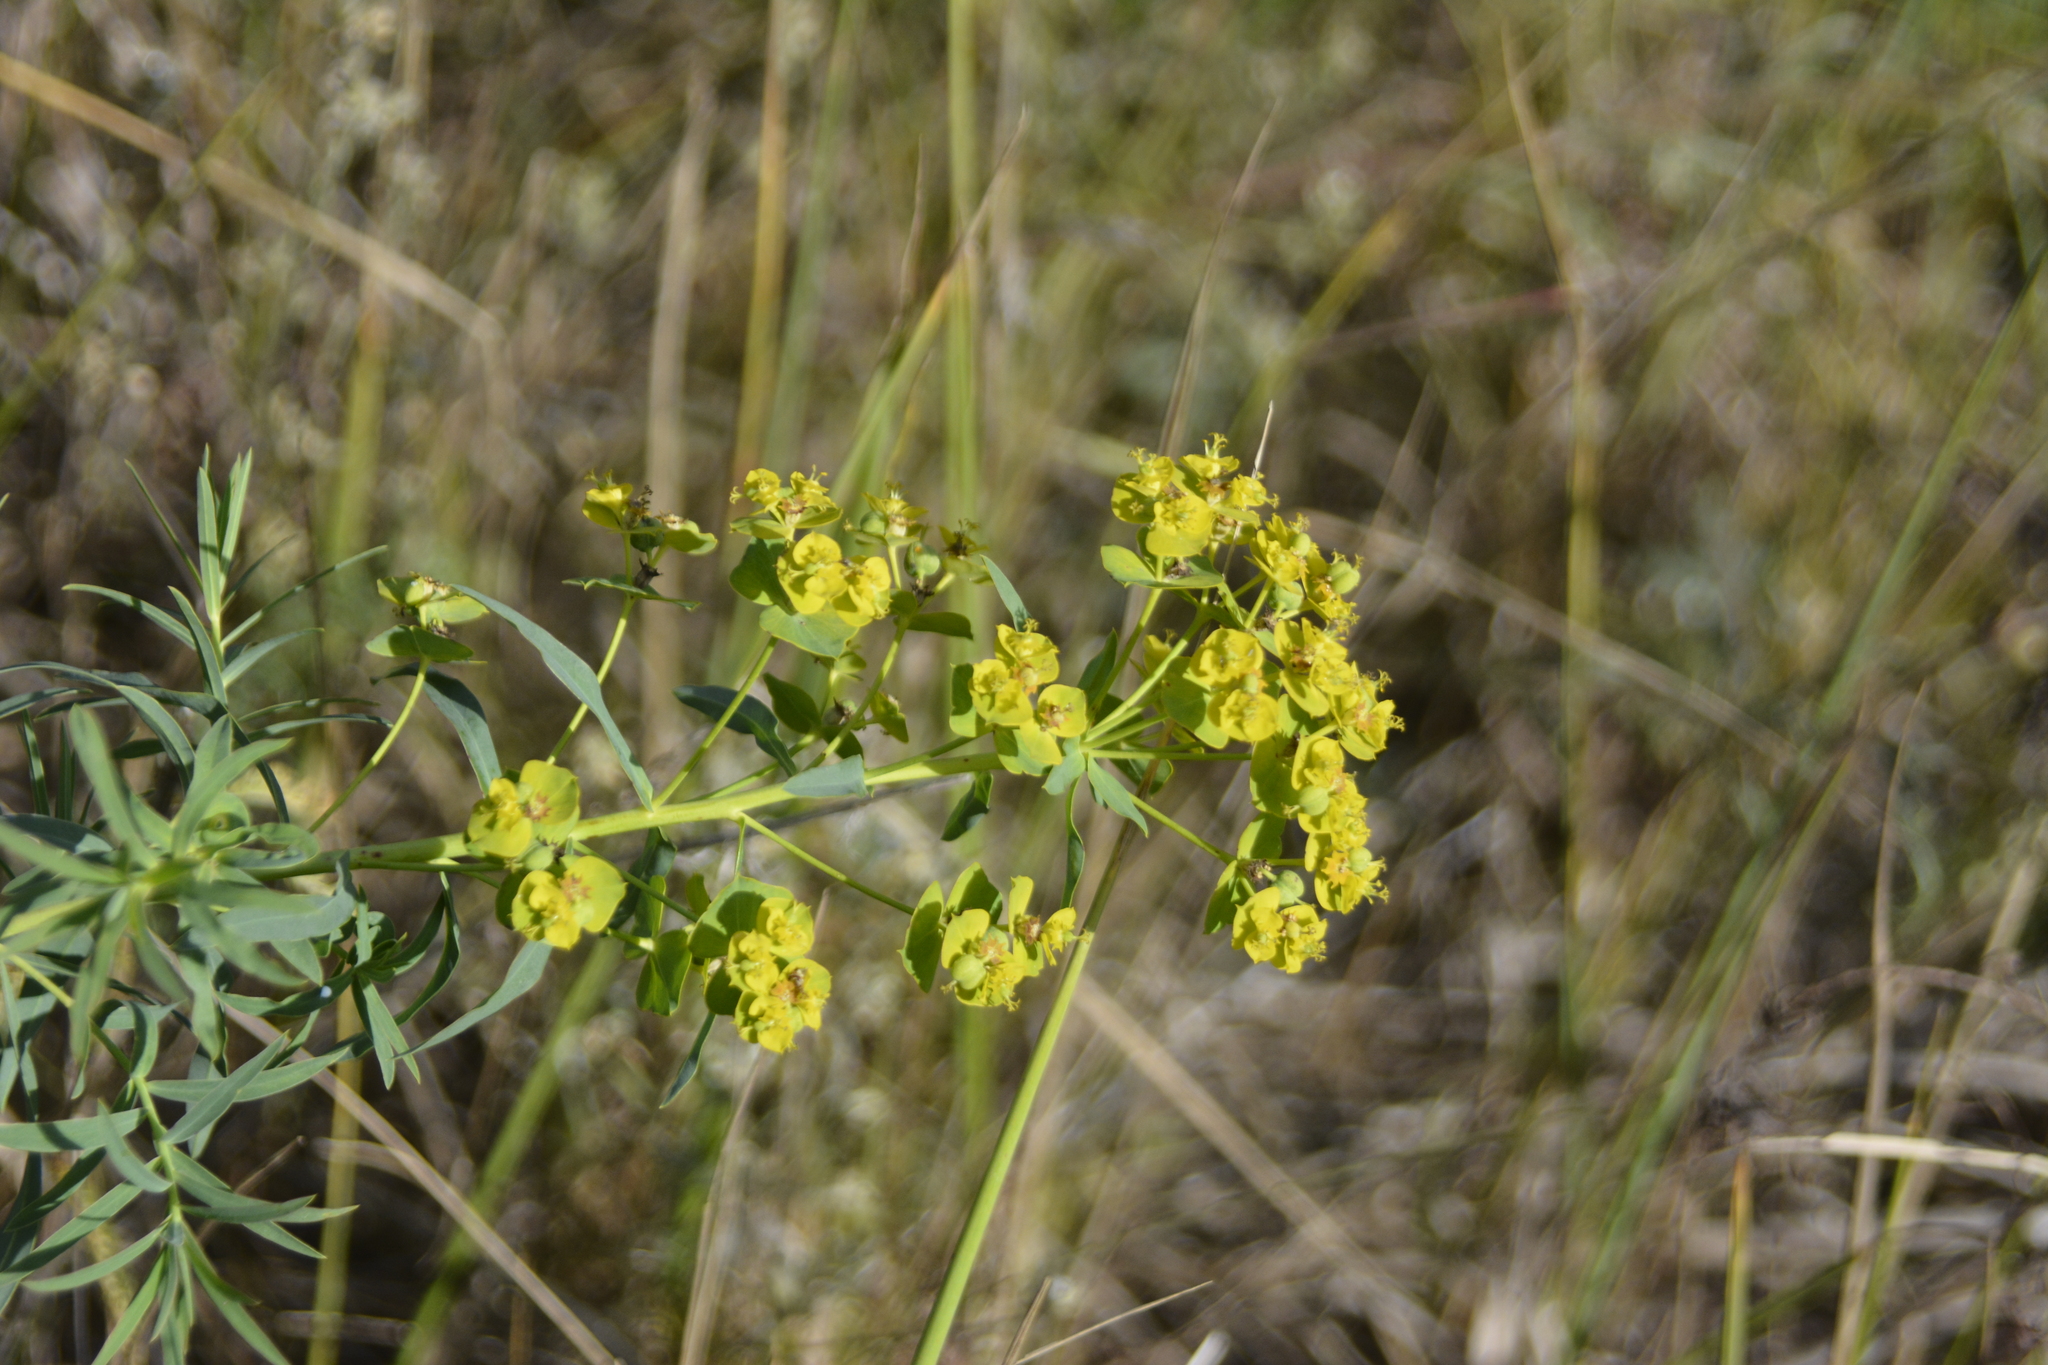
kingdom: Plantae
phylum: Tracheophyta
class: Magnoliopsida
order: Malpighiales
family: Euphorbiaceae
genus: Euphorbia
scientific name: Euphorbia virgata
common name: Leafy spurge
